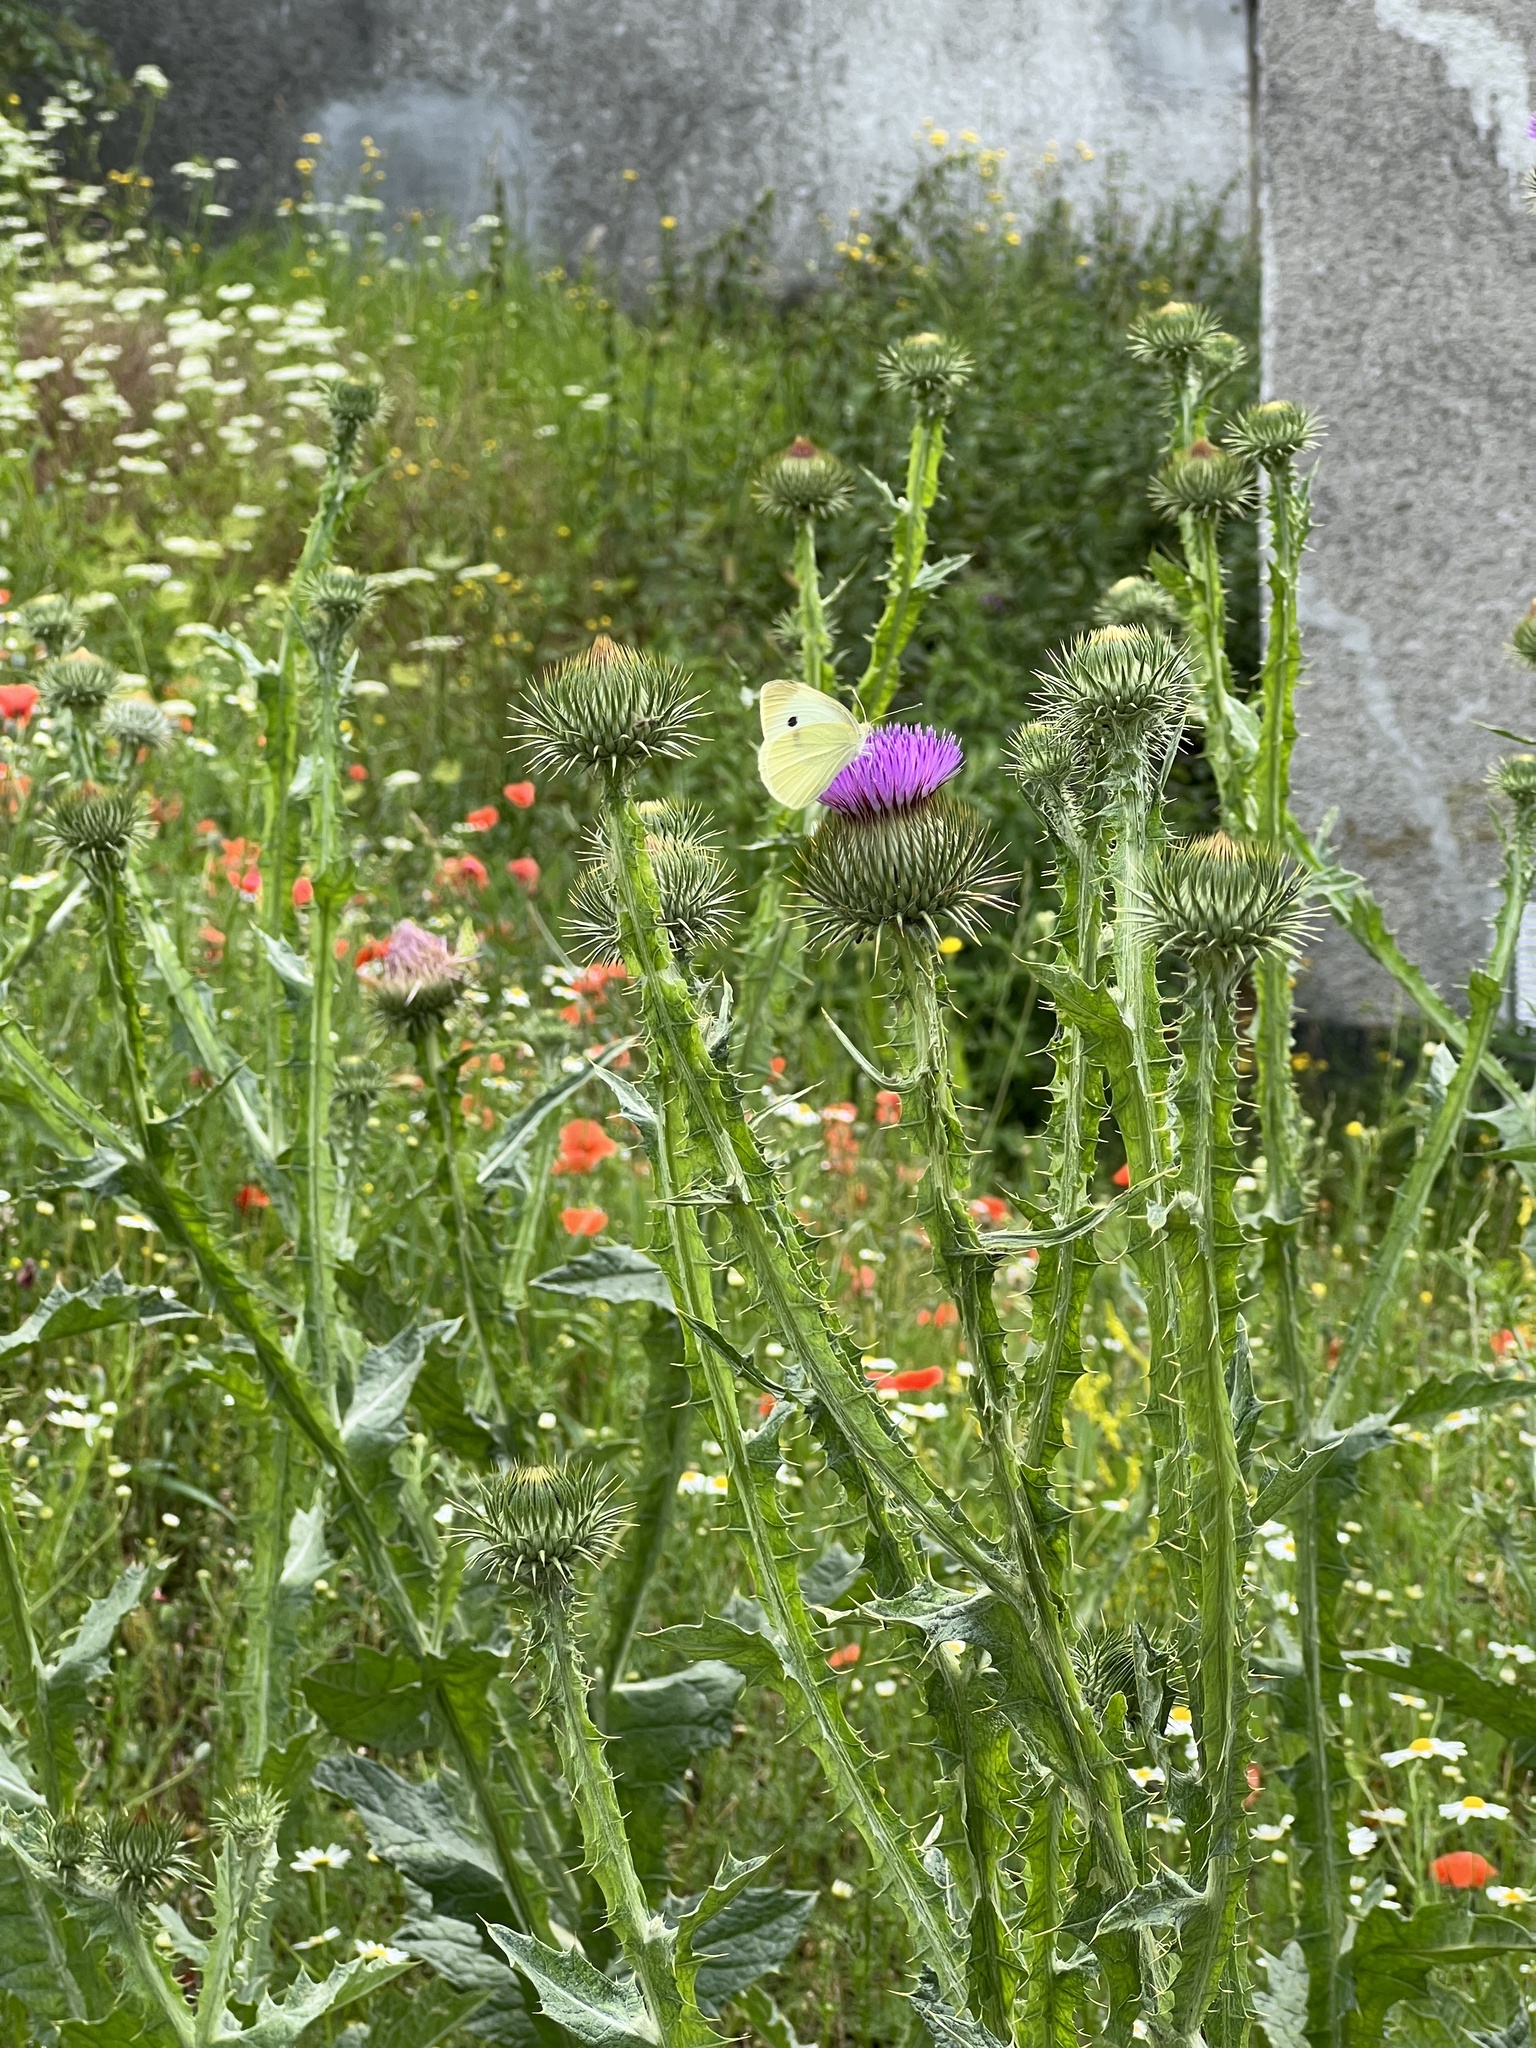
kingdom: Plantae
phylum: Tracheophyta
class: Magnoliopsida
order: Asterales
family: Asteraceae
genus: Onopordum
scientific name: Onopordum acanthium
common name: Scotch thistle
